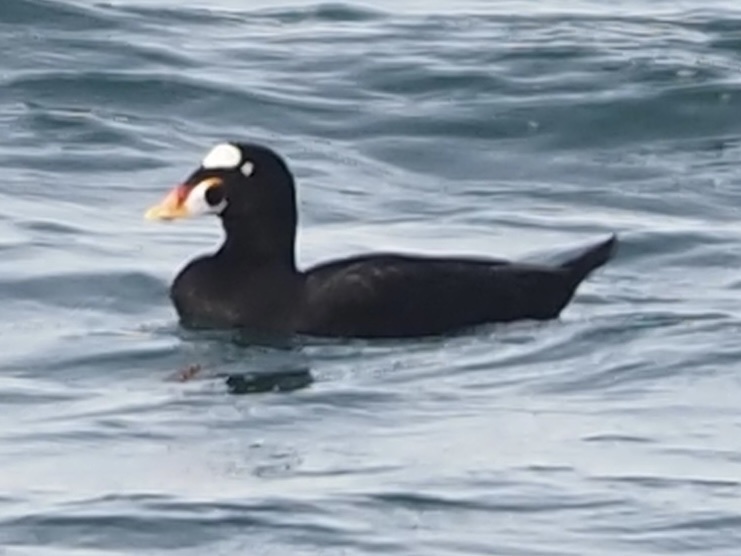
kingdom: Animalia
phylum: Chordata
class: Aves
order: Anseriformes
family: Anatidae
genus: Melanitta
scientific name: Melanitta perspicillata
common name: Surf scoter
